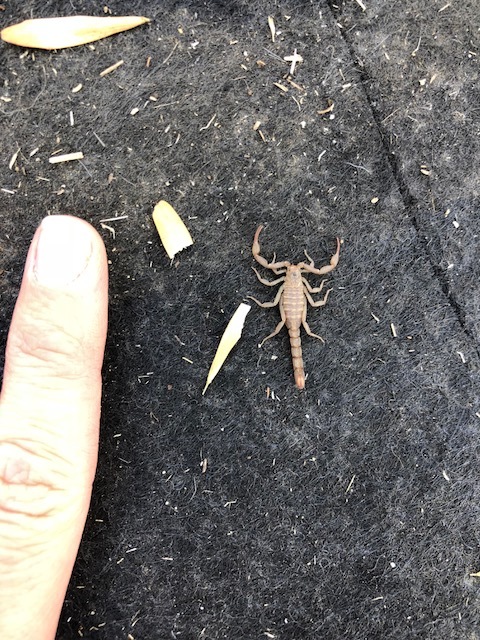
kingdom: Animalia
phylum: Arthropoda
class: Arachnida
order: Scorpiones
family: Vaejovidae
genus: Serradigitus
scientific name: Serradigitus gertschi
